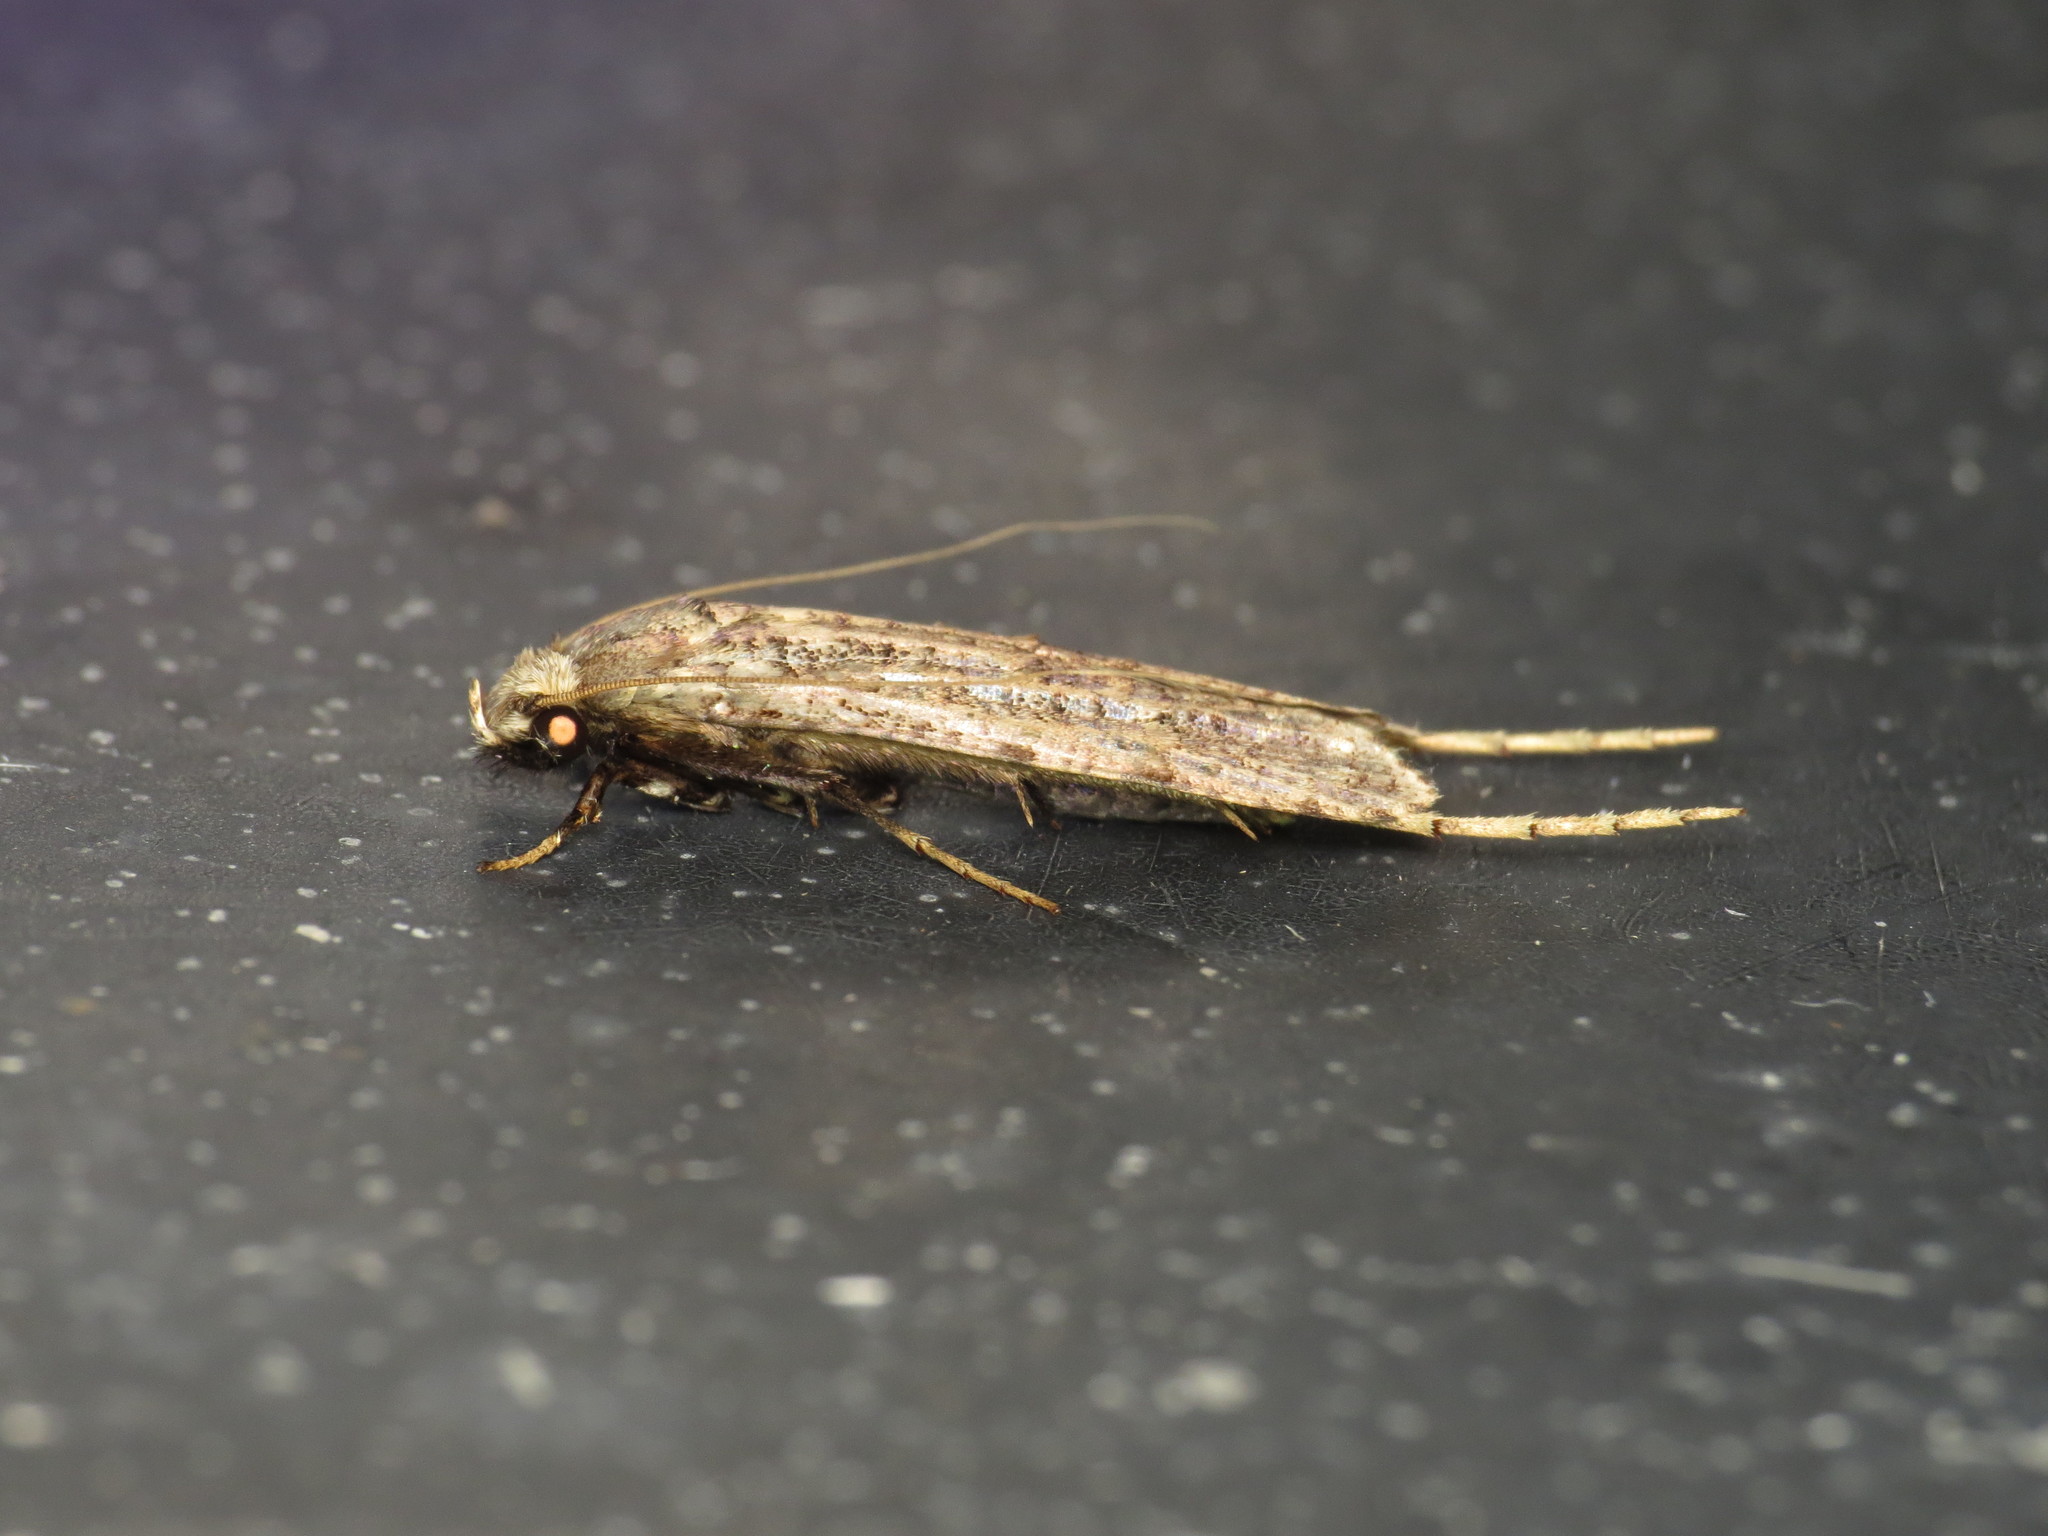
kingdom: Animalia
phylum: Arthropoda
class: Insecta
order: Lepidoptera
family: Tineidae
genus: Gerontha
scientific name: Gerontha acrosthenia
